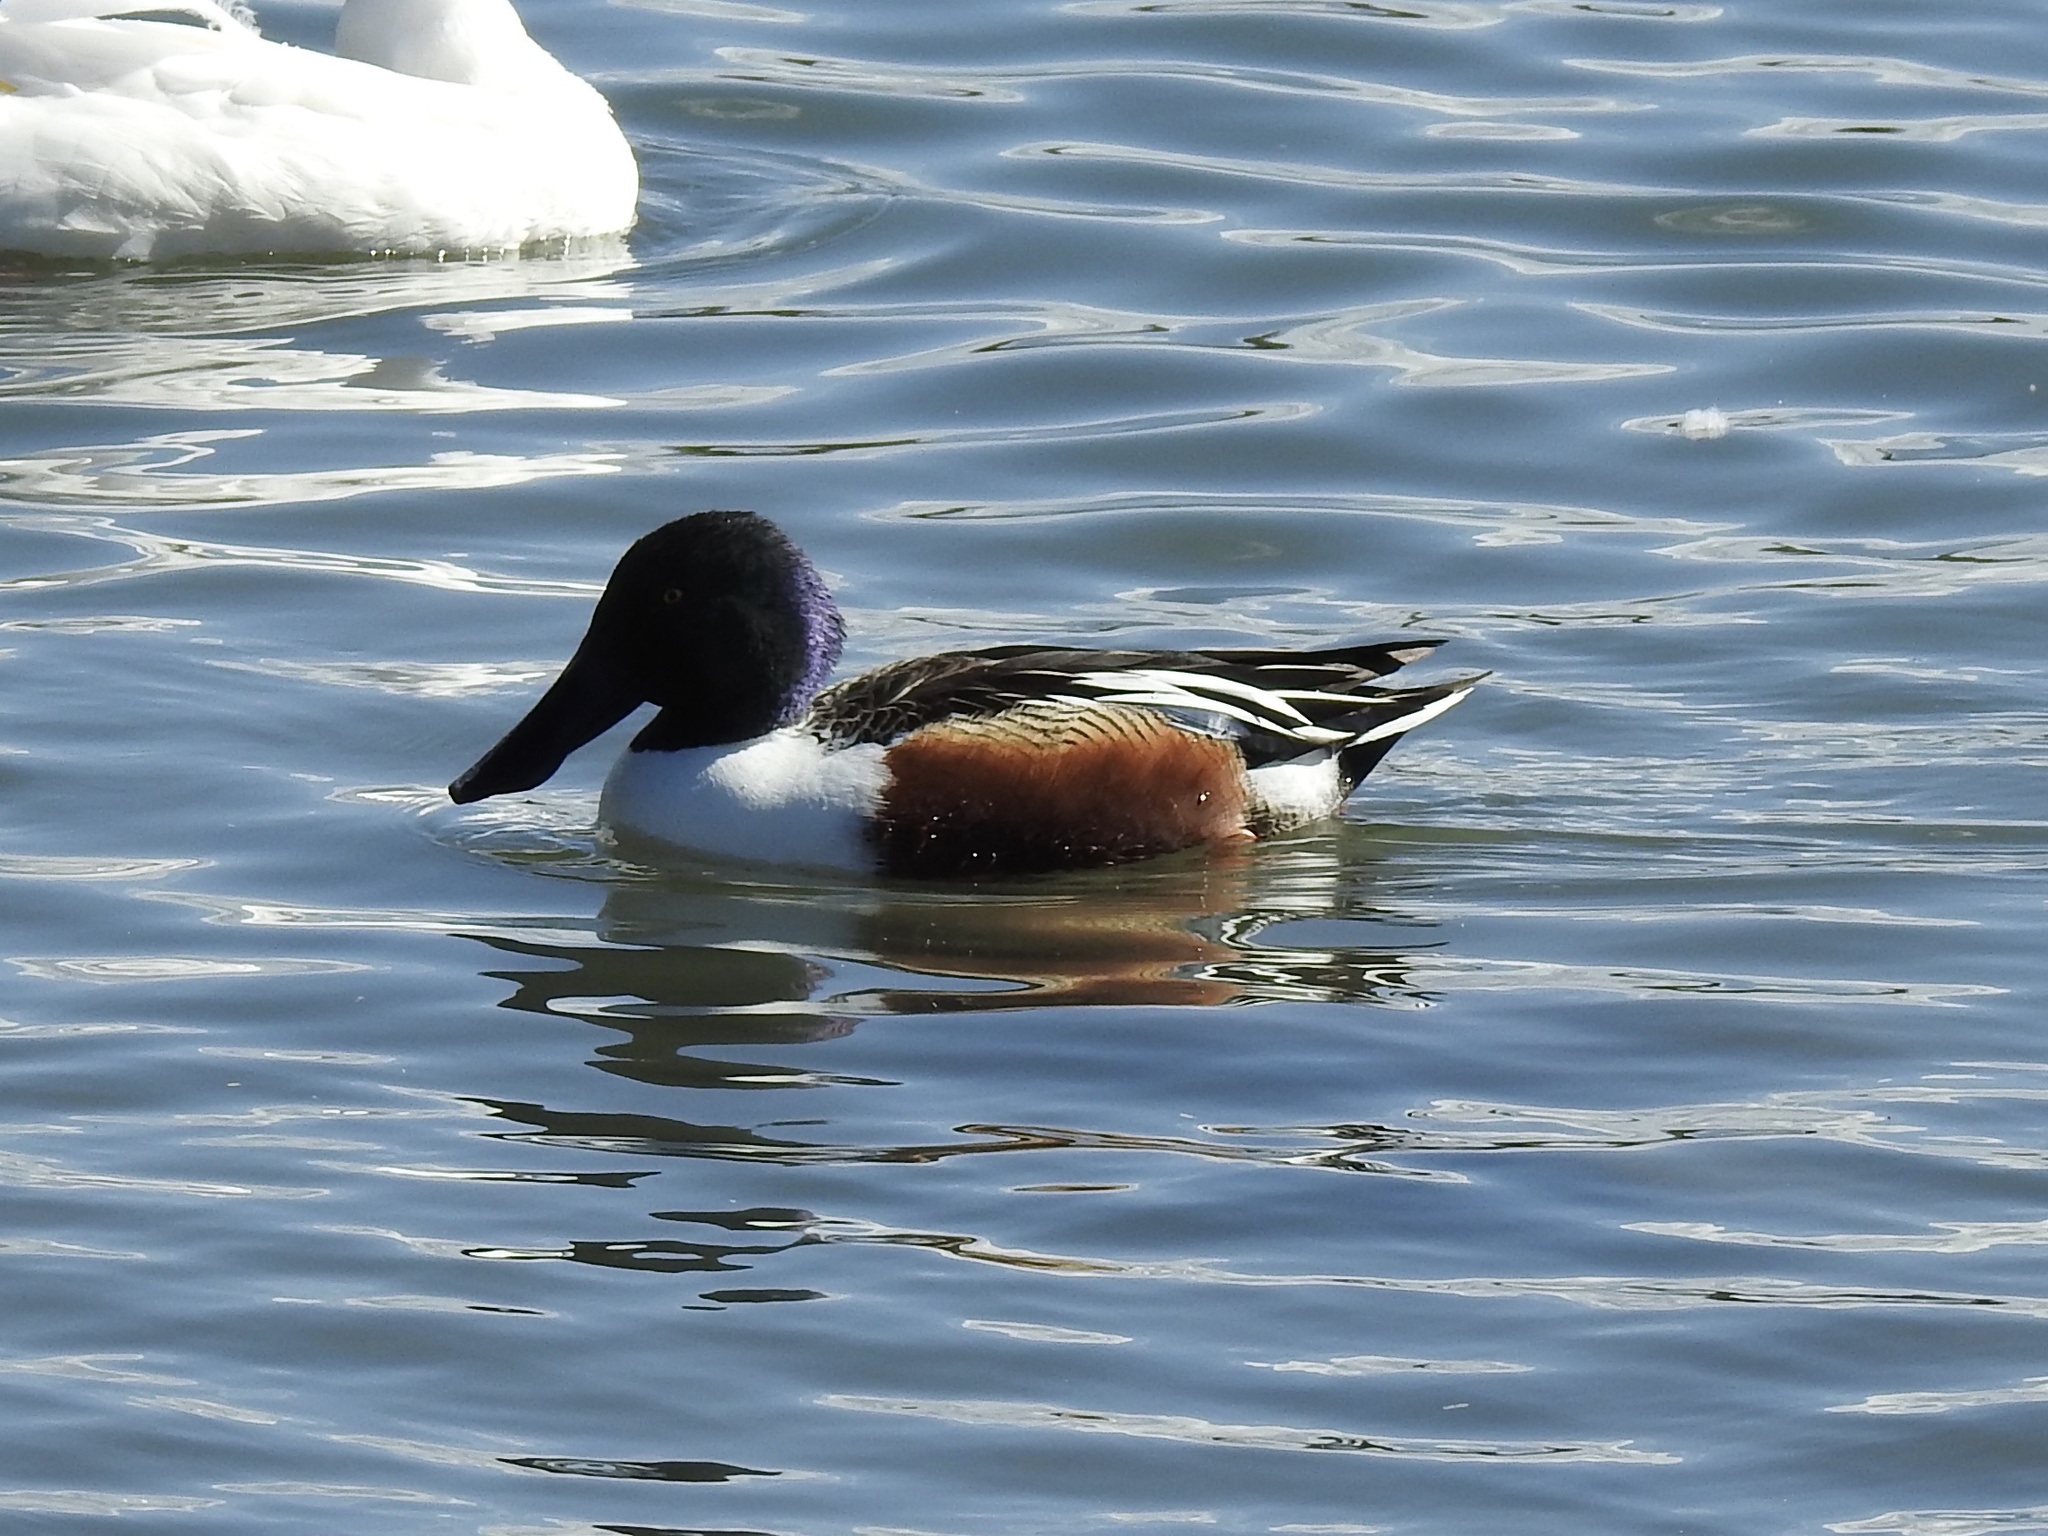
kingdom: Animalia
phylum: Chordata
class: Aves
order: Anseriformes
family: Anatidae
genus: Spatula
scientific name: Spatula clypeata
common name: Northern shoveler
